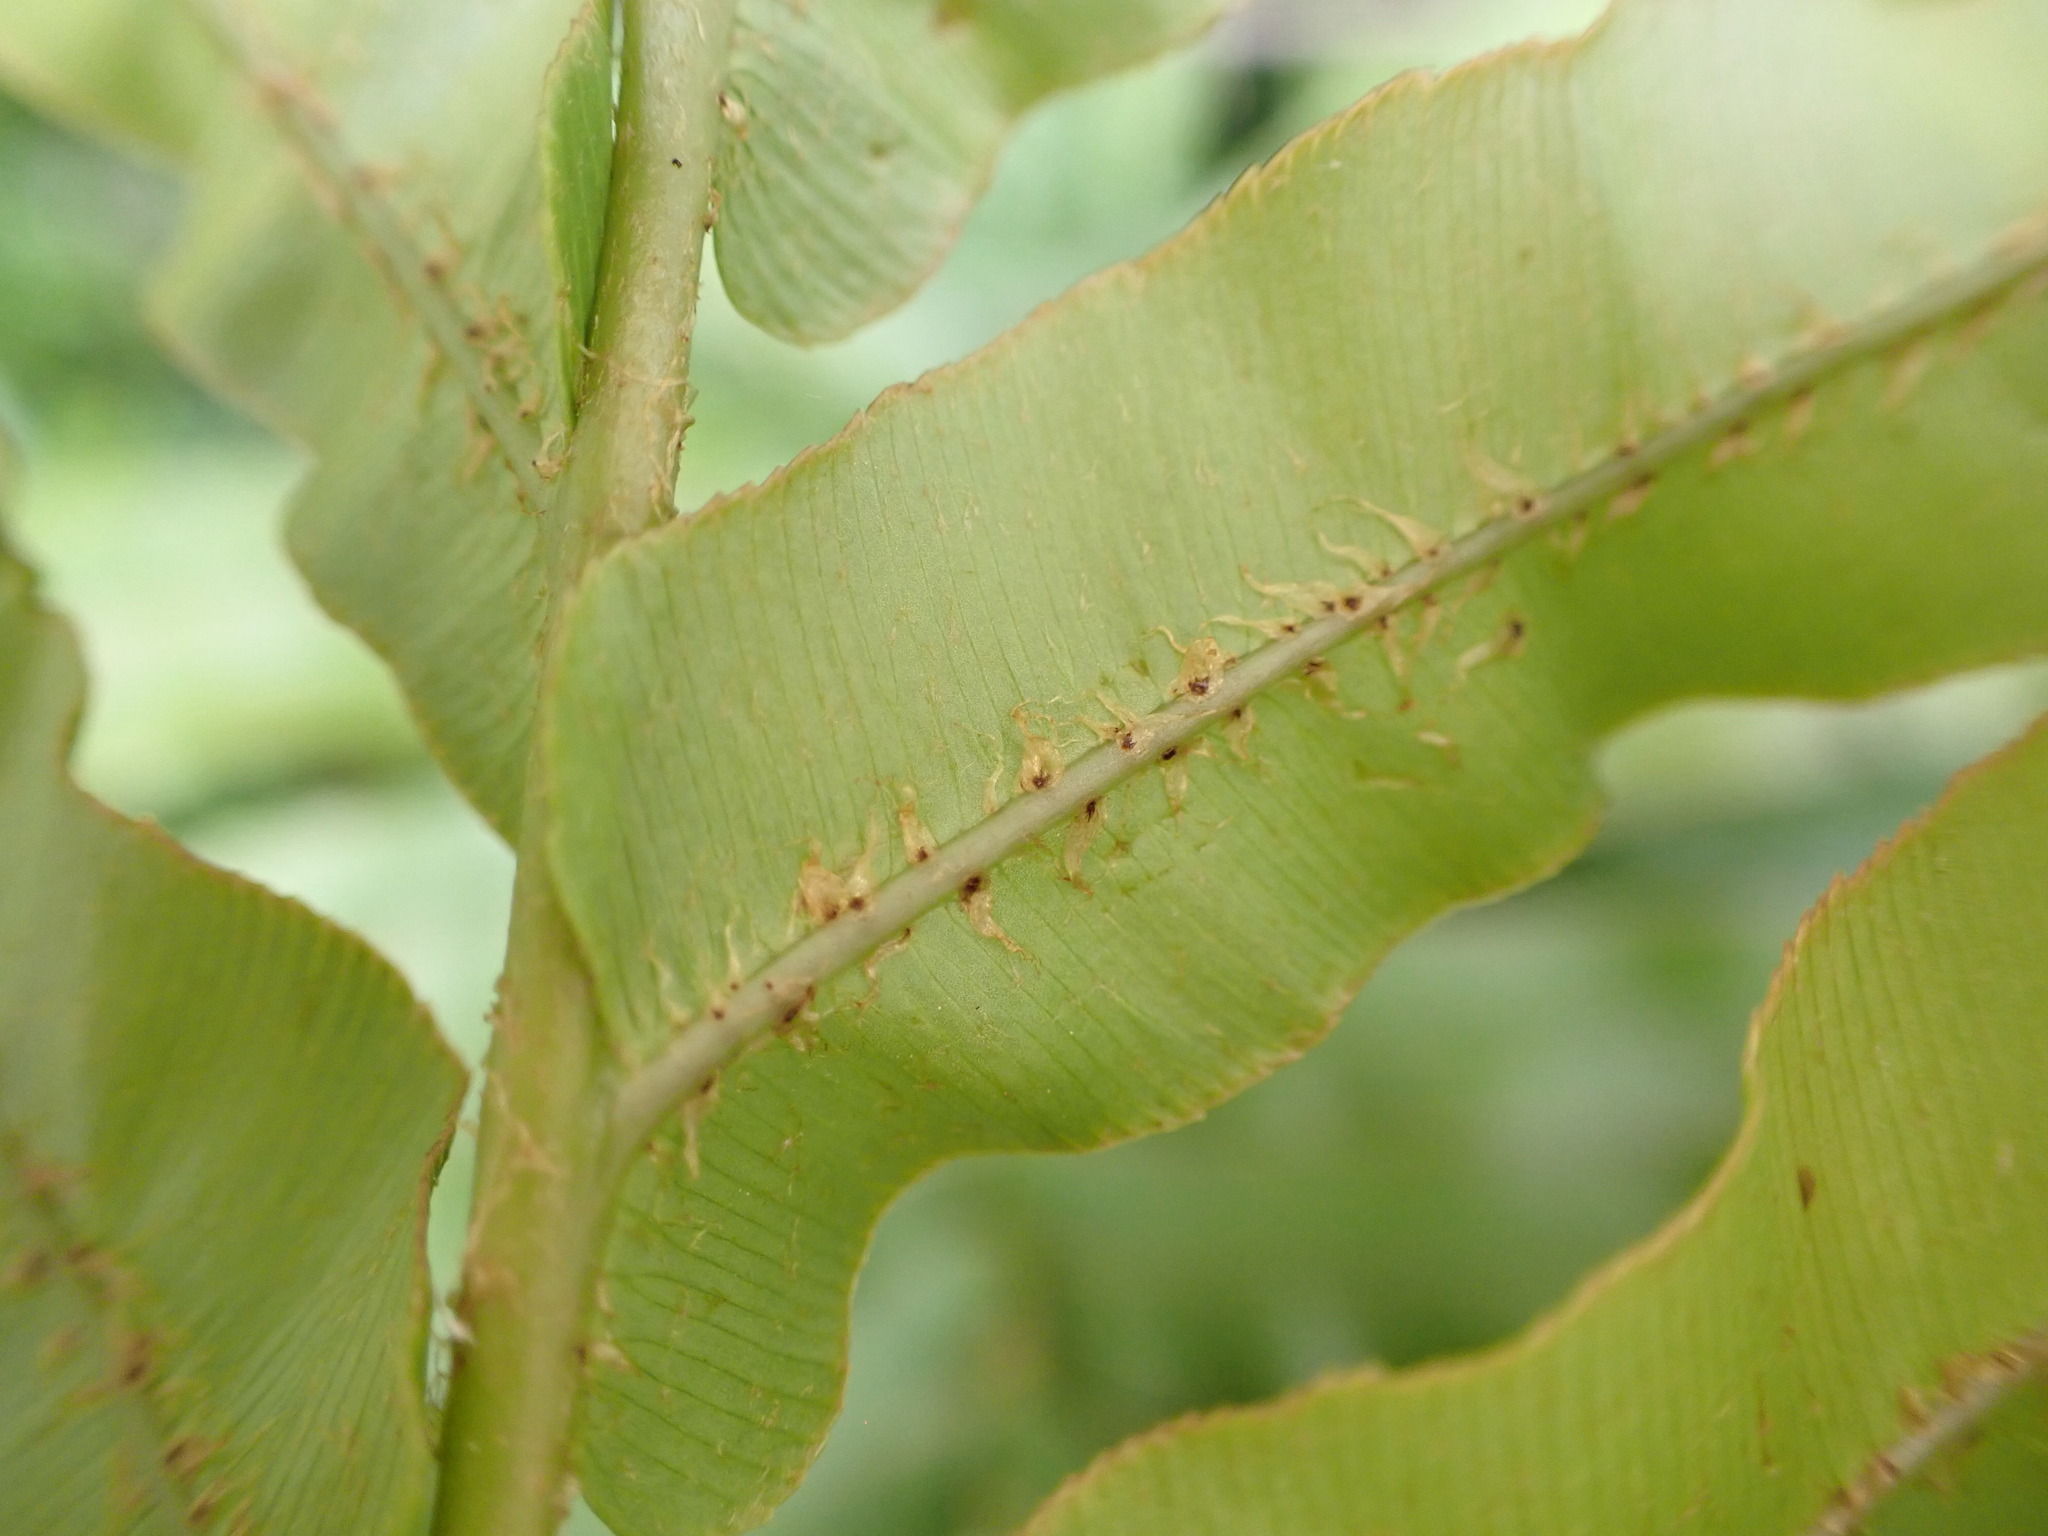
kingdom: Plantae
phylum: Tracheophyta
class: Polypodiopsida
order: Polypodiales
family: Blechnaceae
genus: Parablechnum
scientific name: Parablechnum novae-zelandiae
